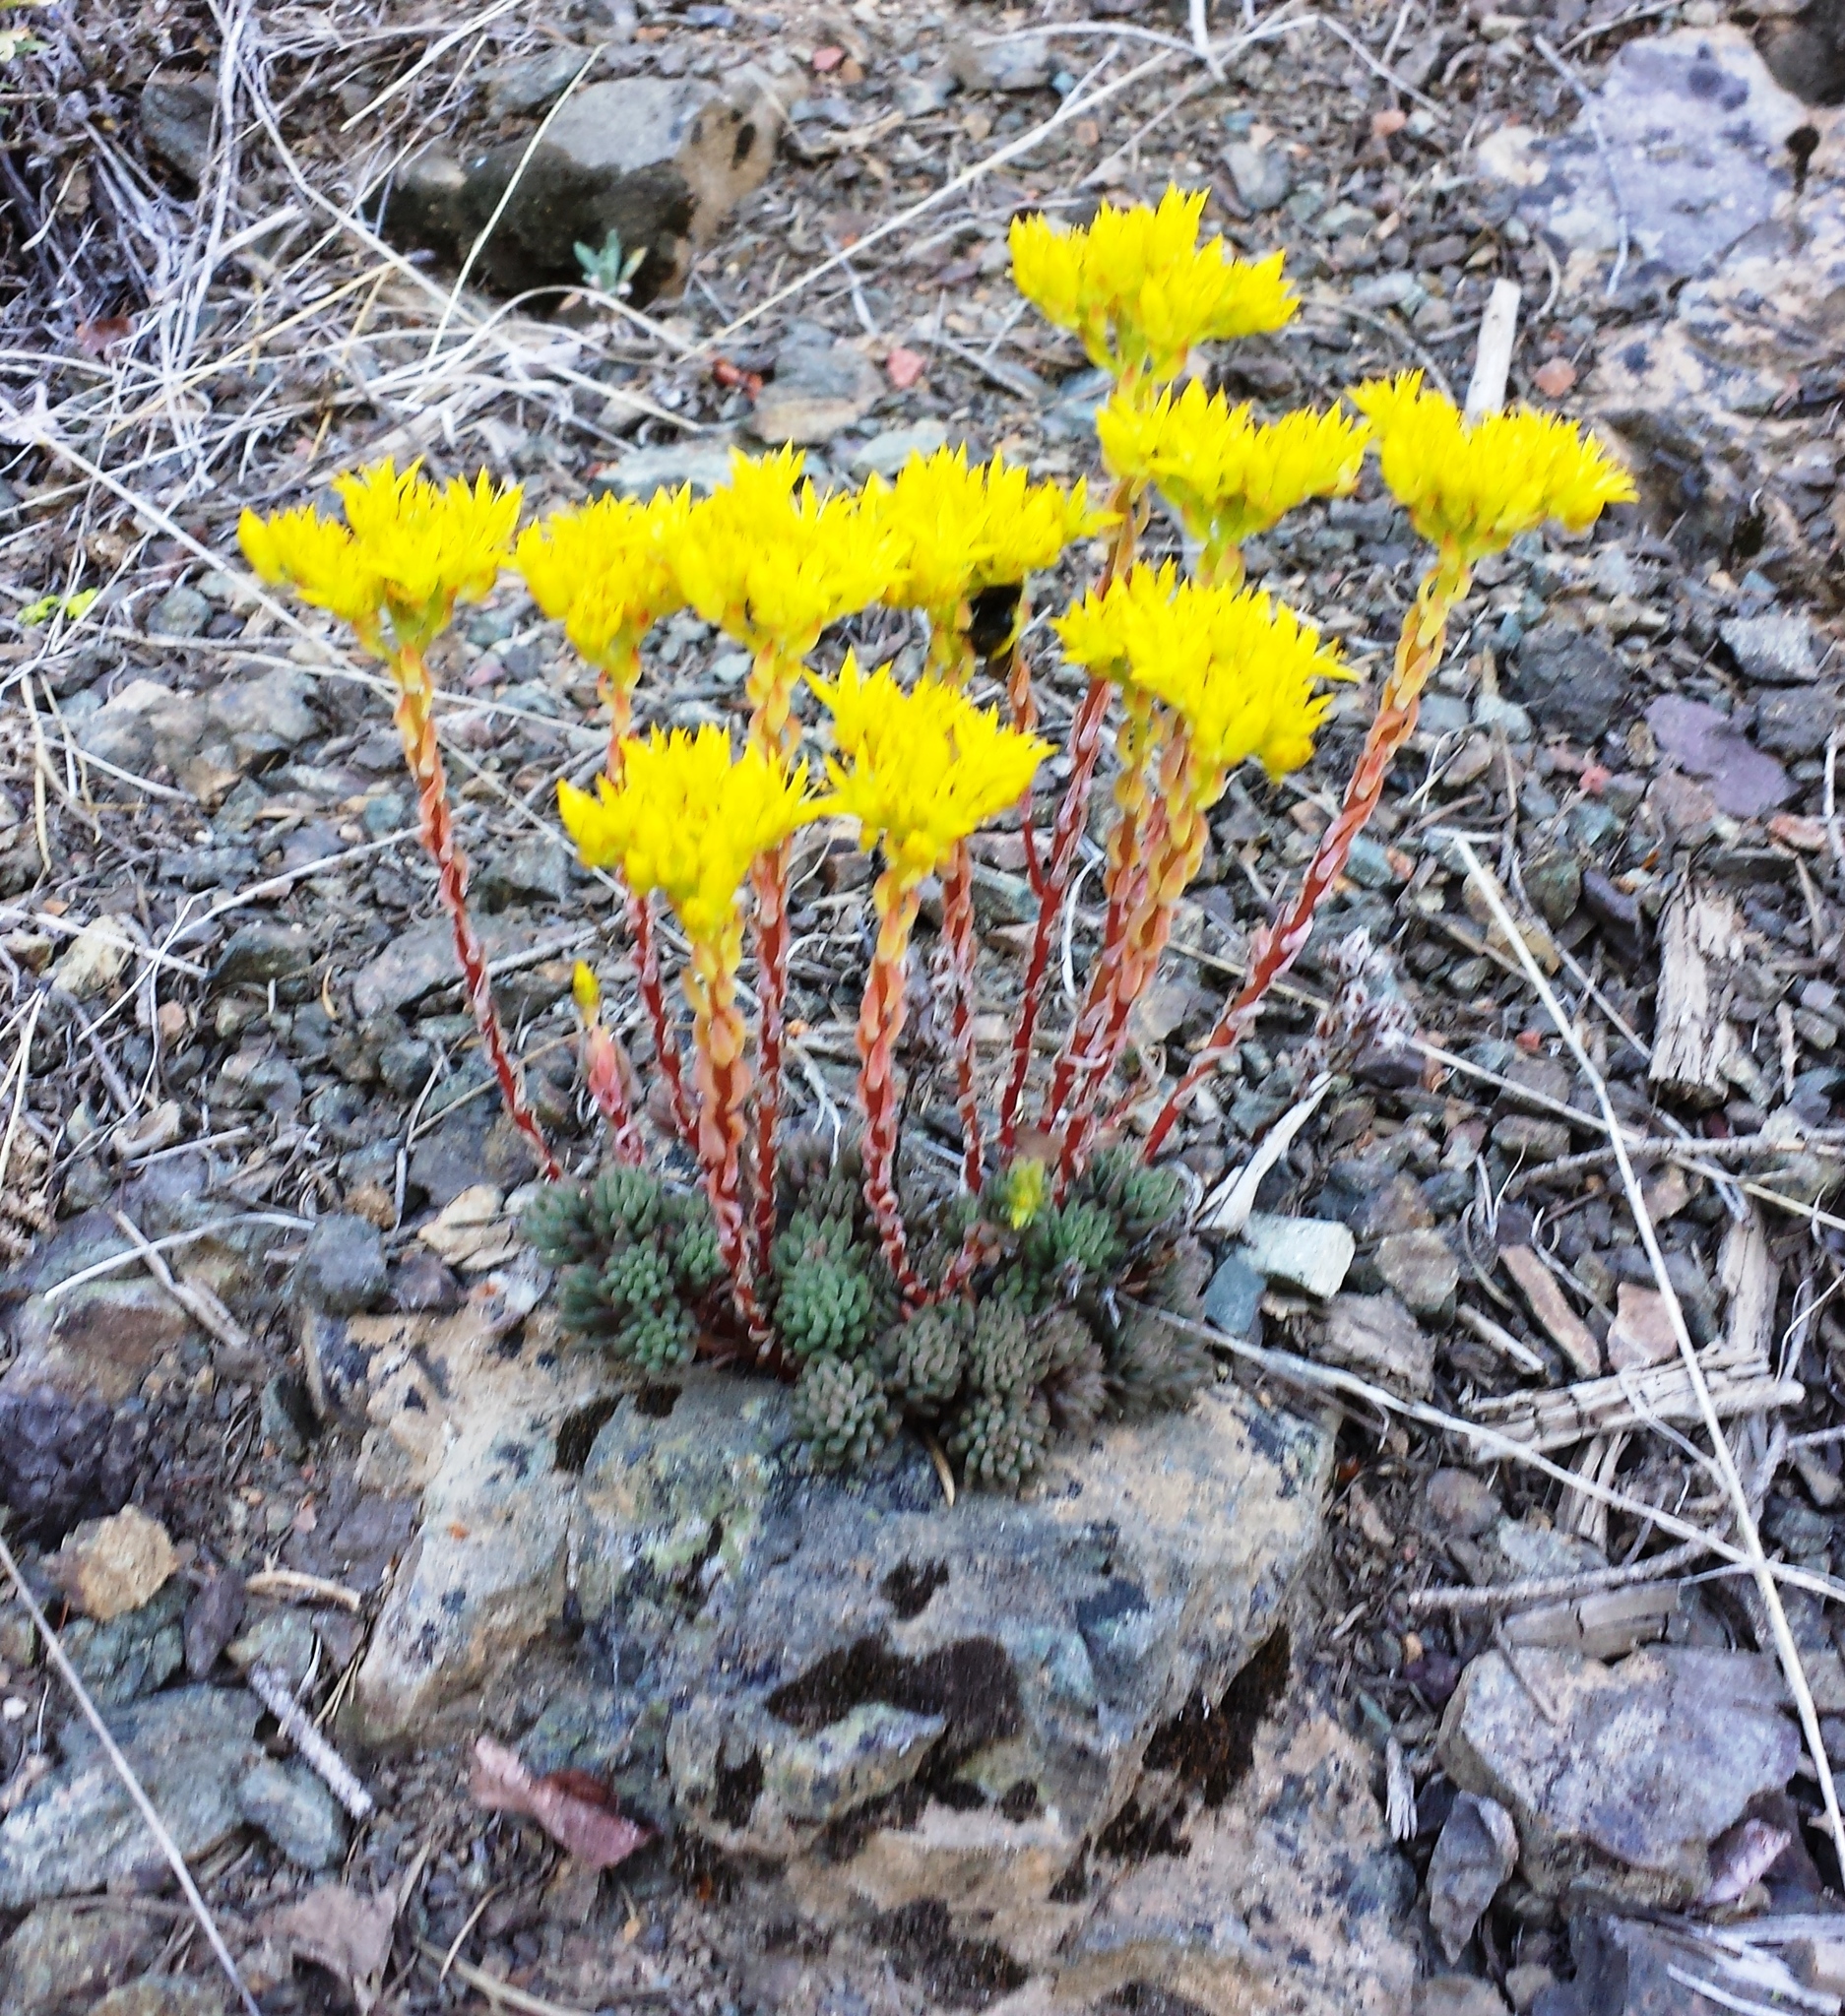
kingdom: Plantae
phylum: Tracheophyta
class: Magnoliopsida
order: Saxifragales
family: Crassulaceae
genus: Sedum
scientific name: Sedum lanceolatum
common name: Common stonecrop
